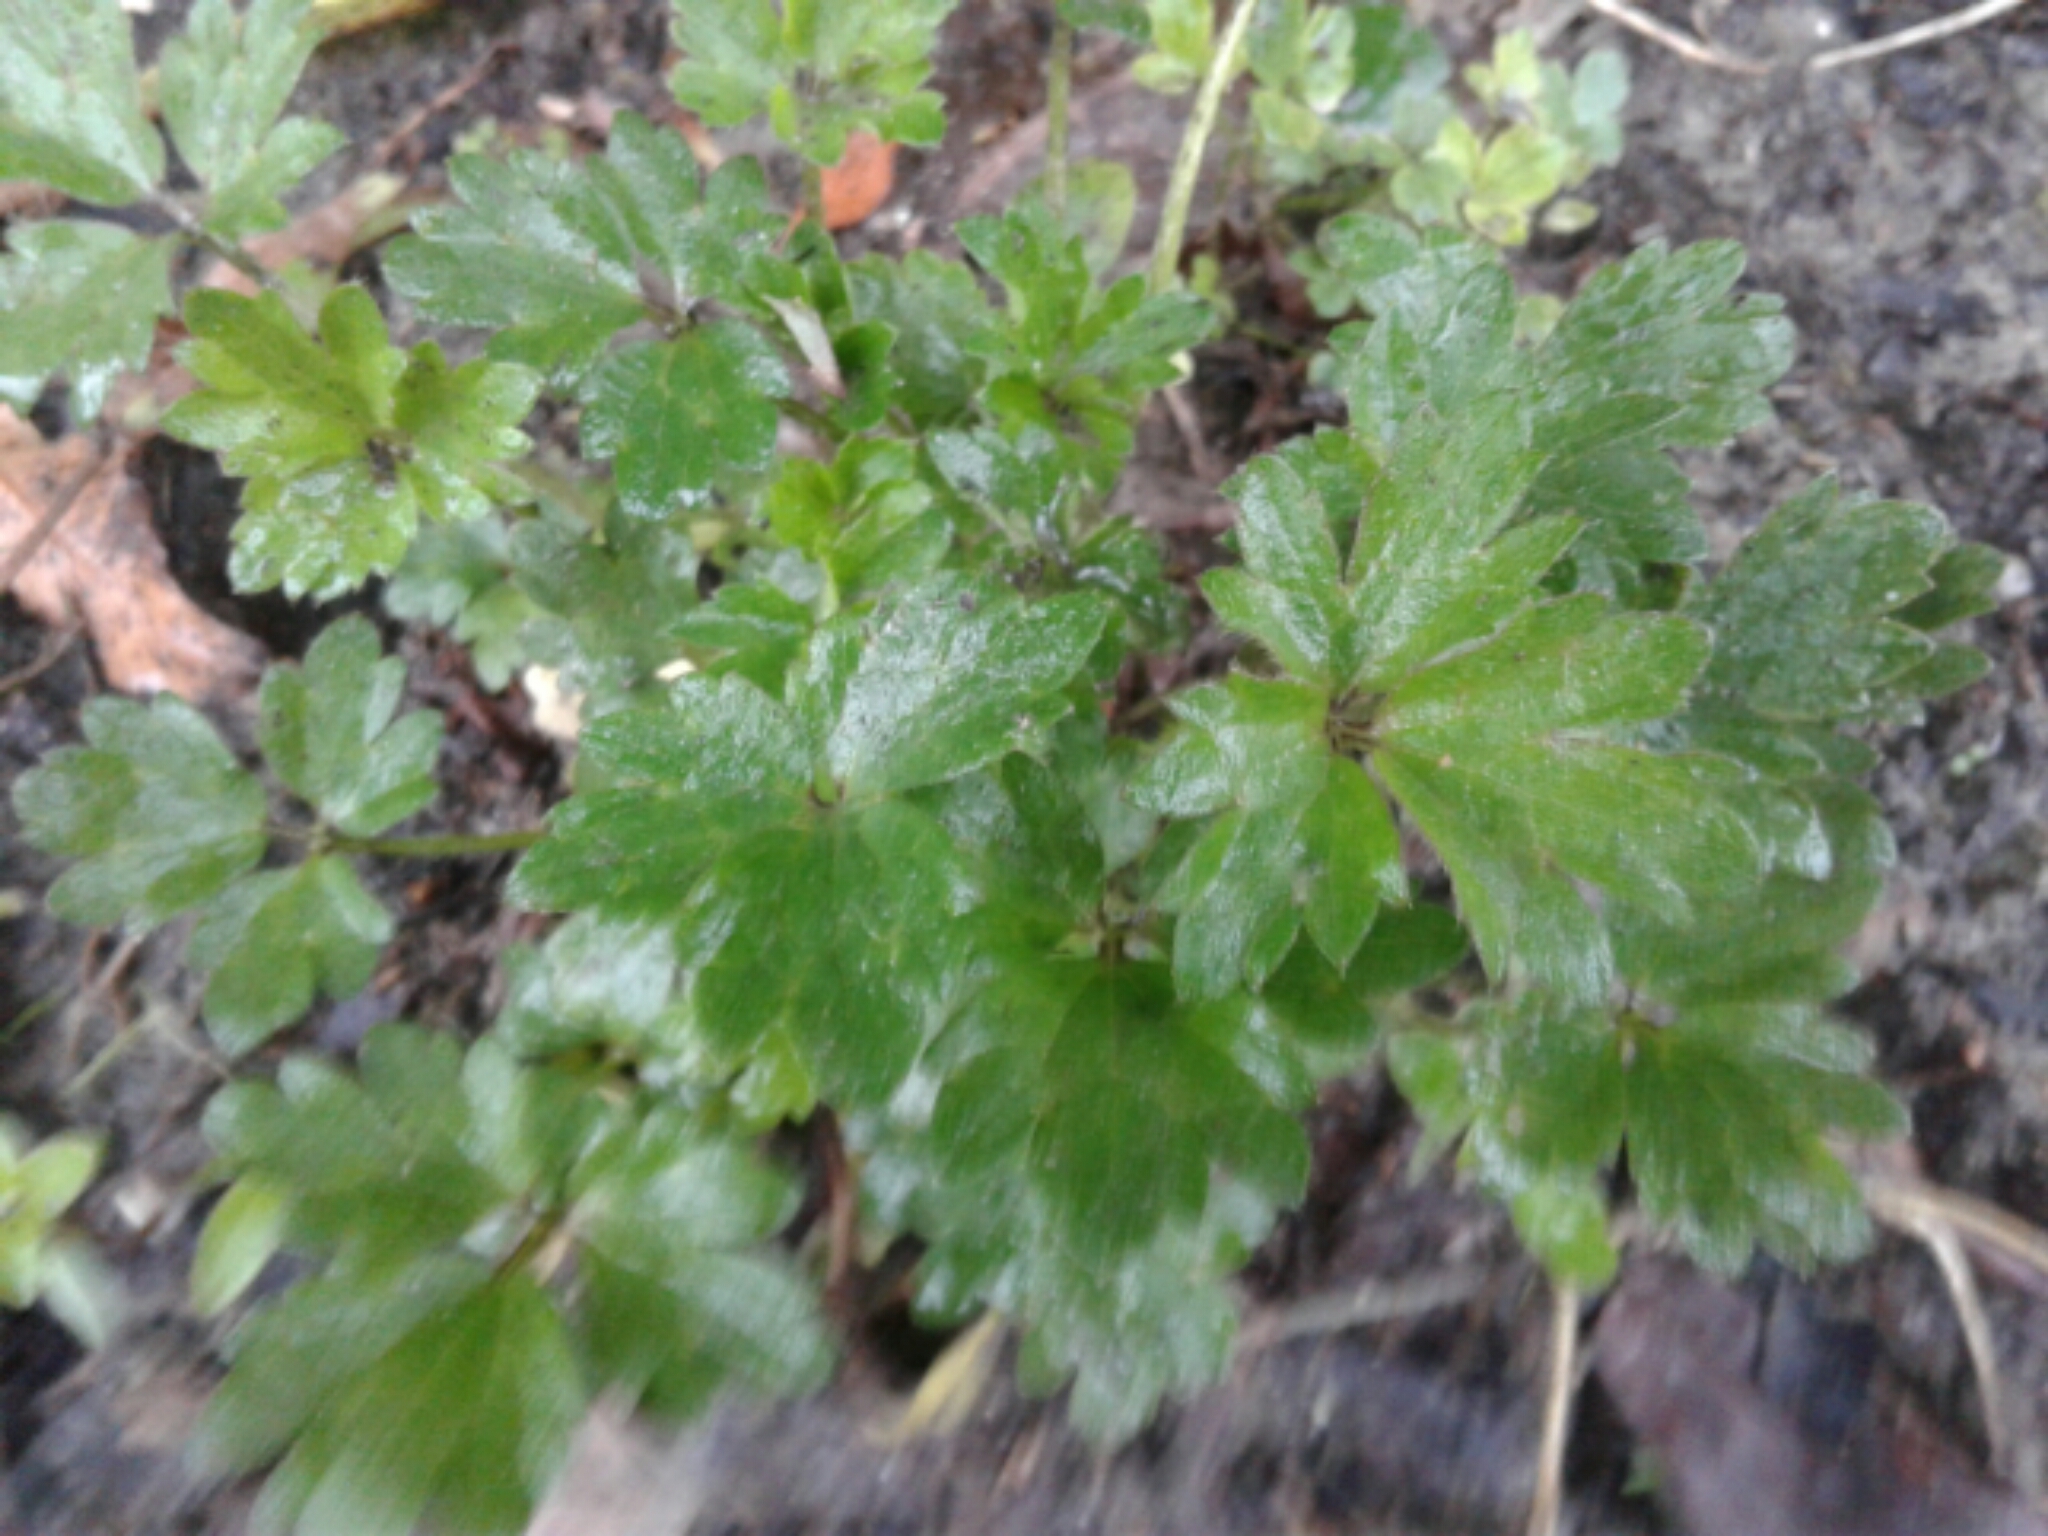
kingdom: Plantae
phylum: Tracheophyta
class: Magnoliopsida
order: Ranunculales
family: Ranunculaceae
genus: Ranunculus
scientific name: Ranunculus repens
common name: Creeping buttercup
